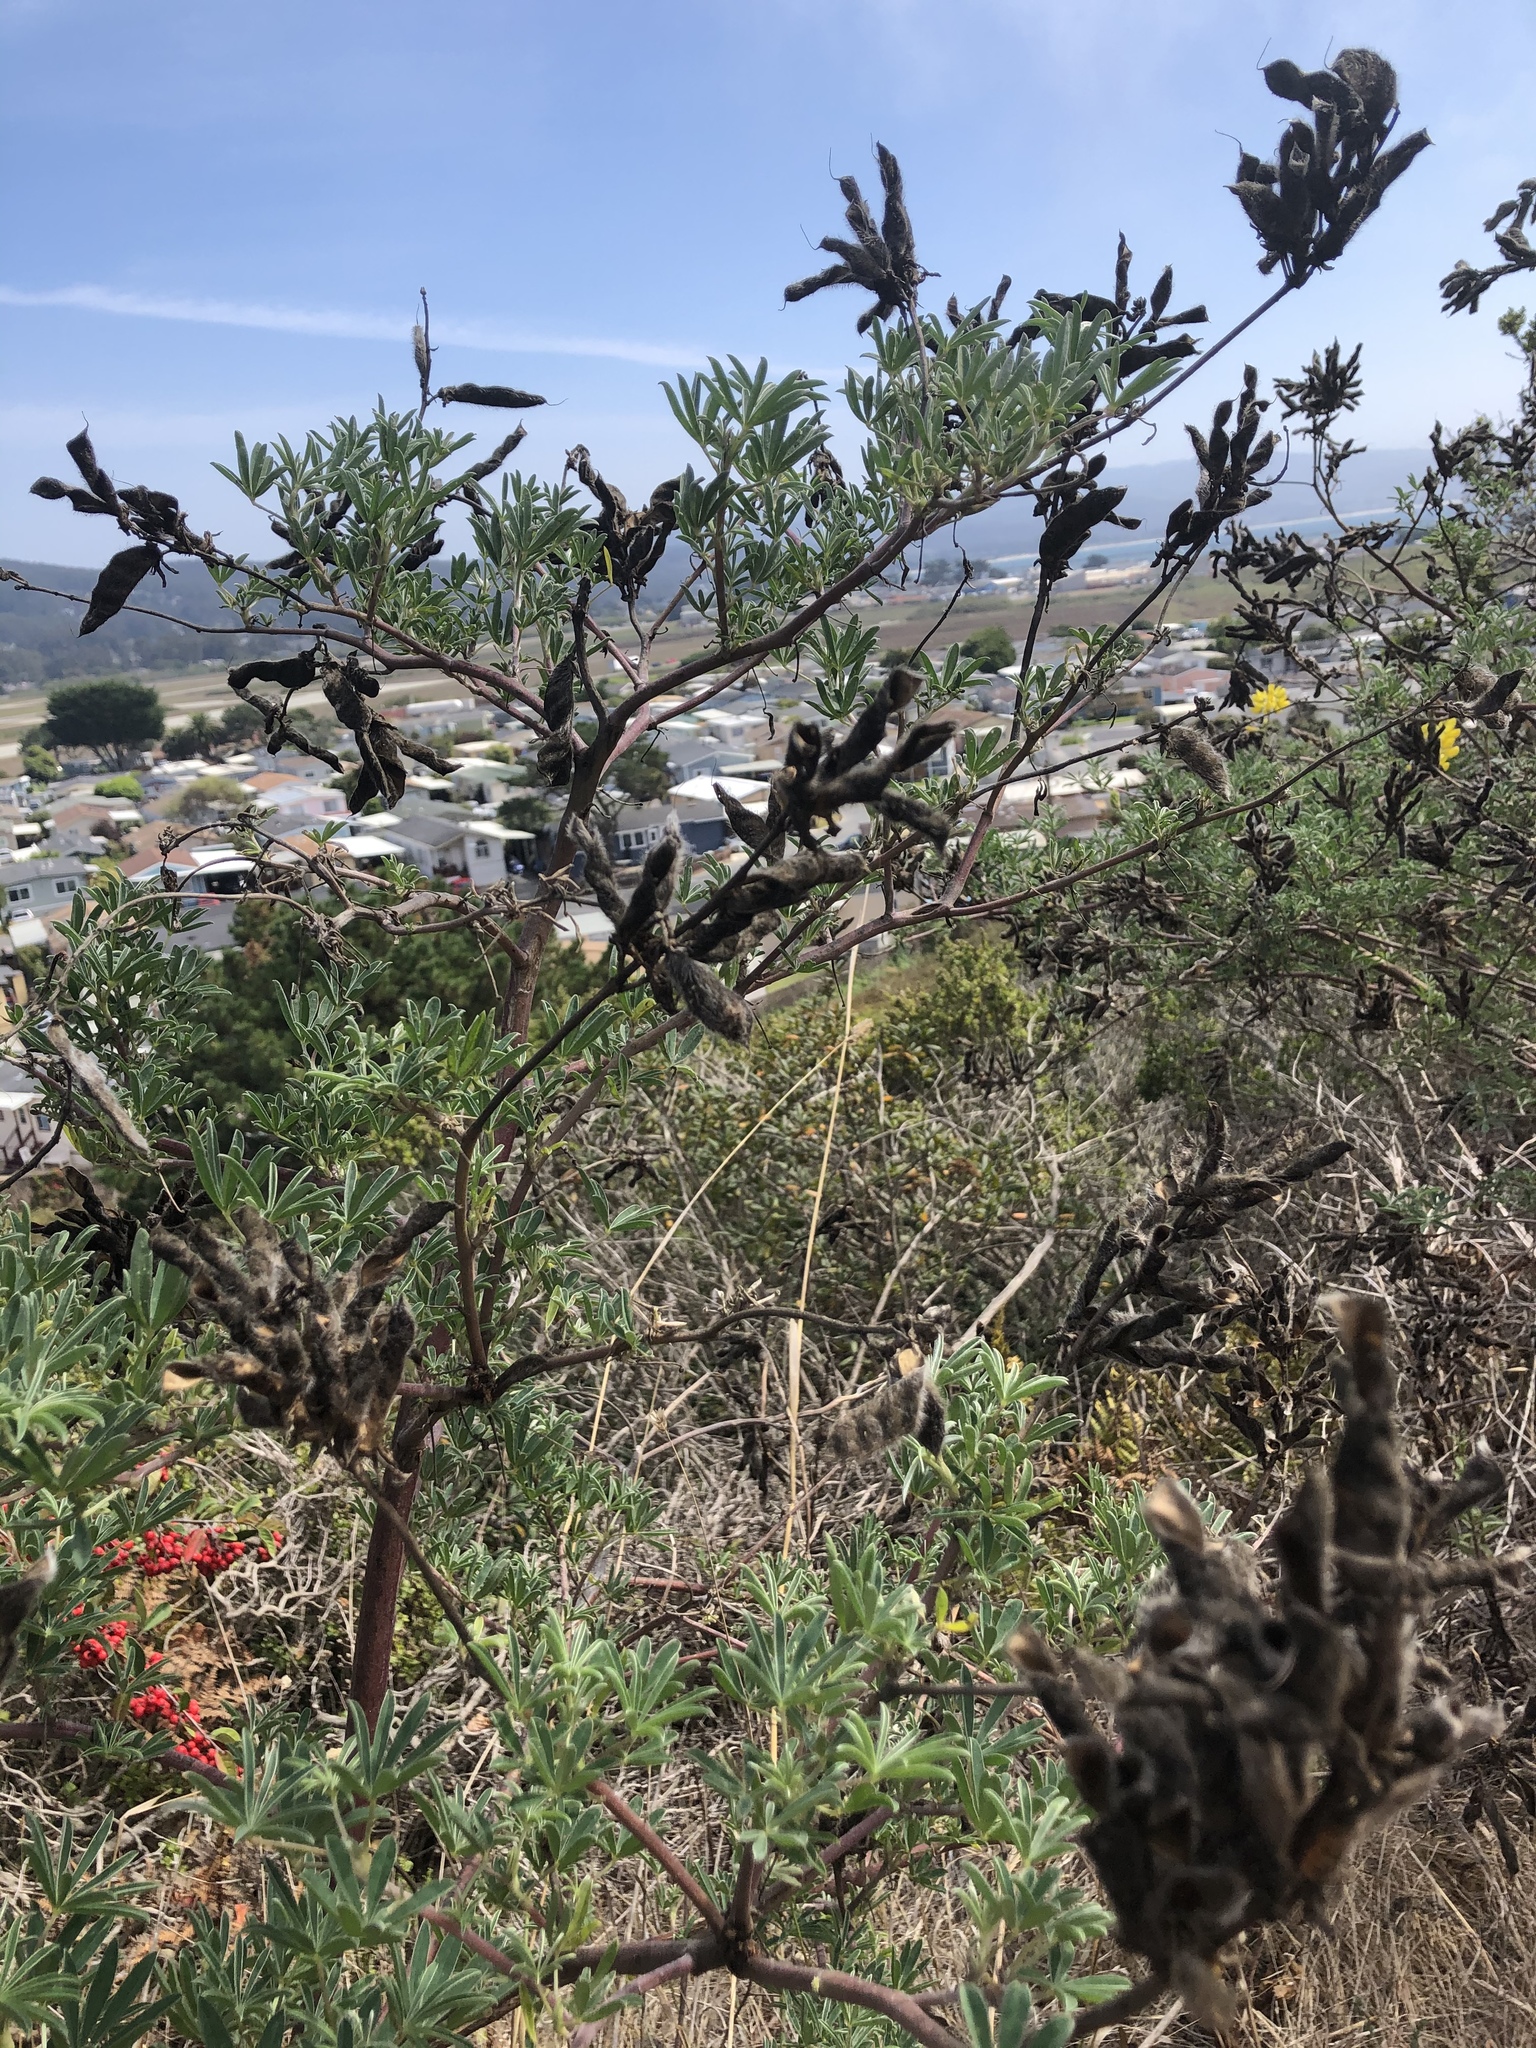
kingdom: Plantae
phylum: Tracheophyta
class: Magnoliopsida
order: Fabales
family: Fabaceae
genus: Lupinus
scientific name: Lupinus arboreus
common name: Yellow bush lupine
